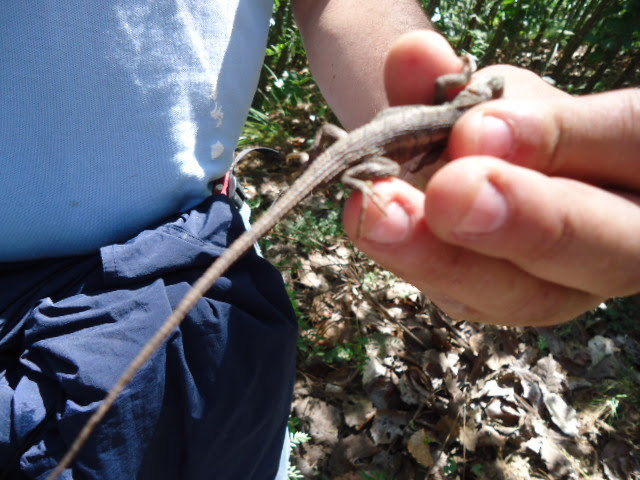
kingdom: Animalia
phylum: Chordata
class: Squamata
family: Phrynosomatidae
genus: Sceloporus
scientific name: Sceloporus siniferus
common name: Longtail spiny lizard
